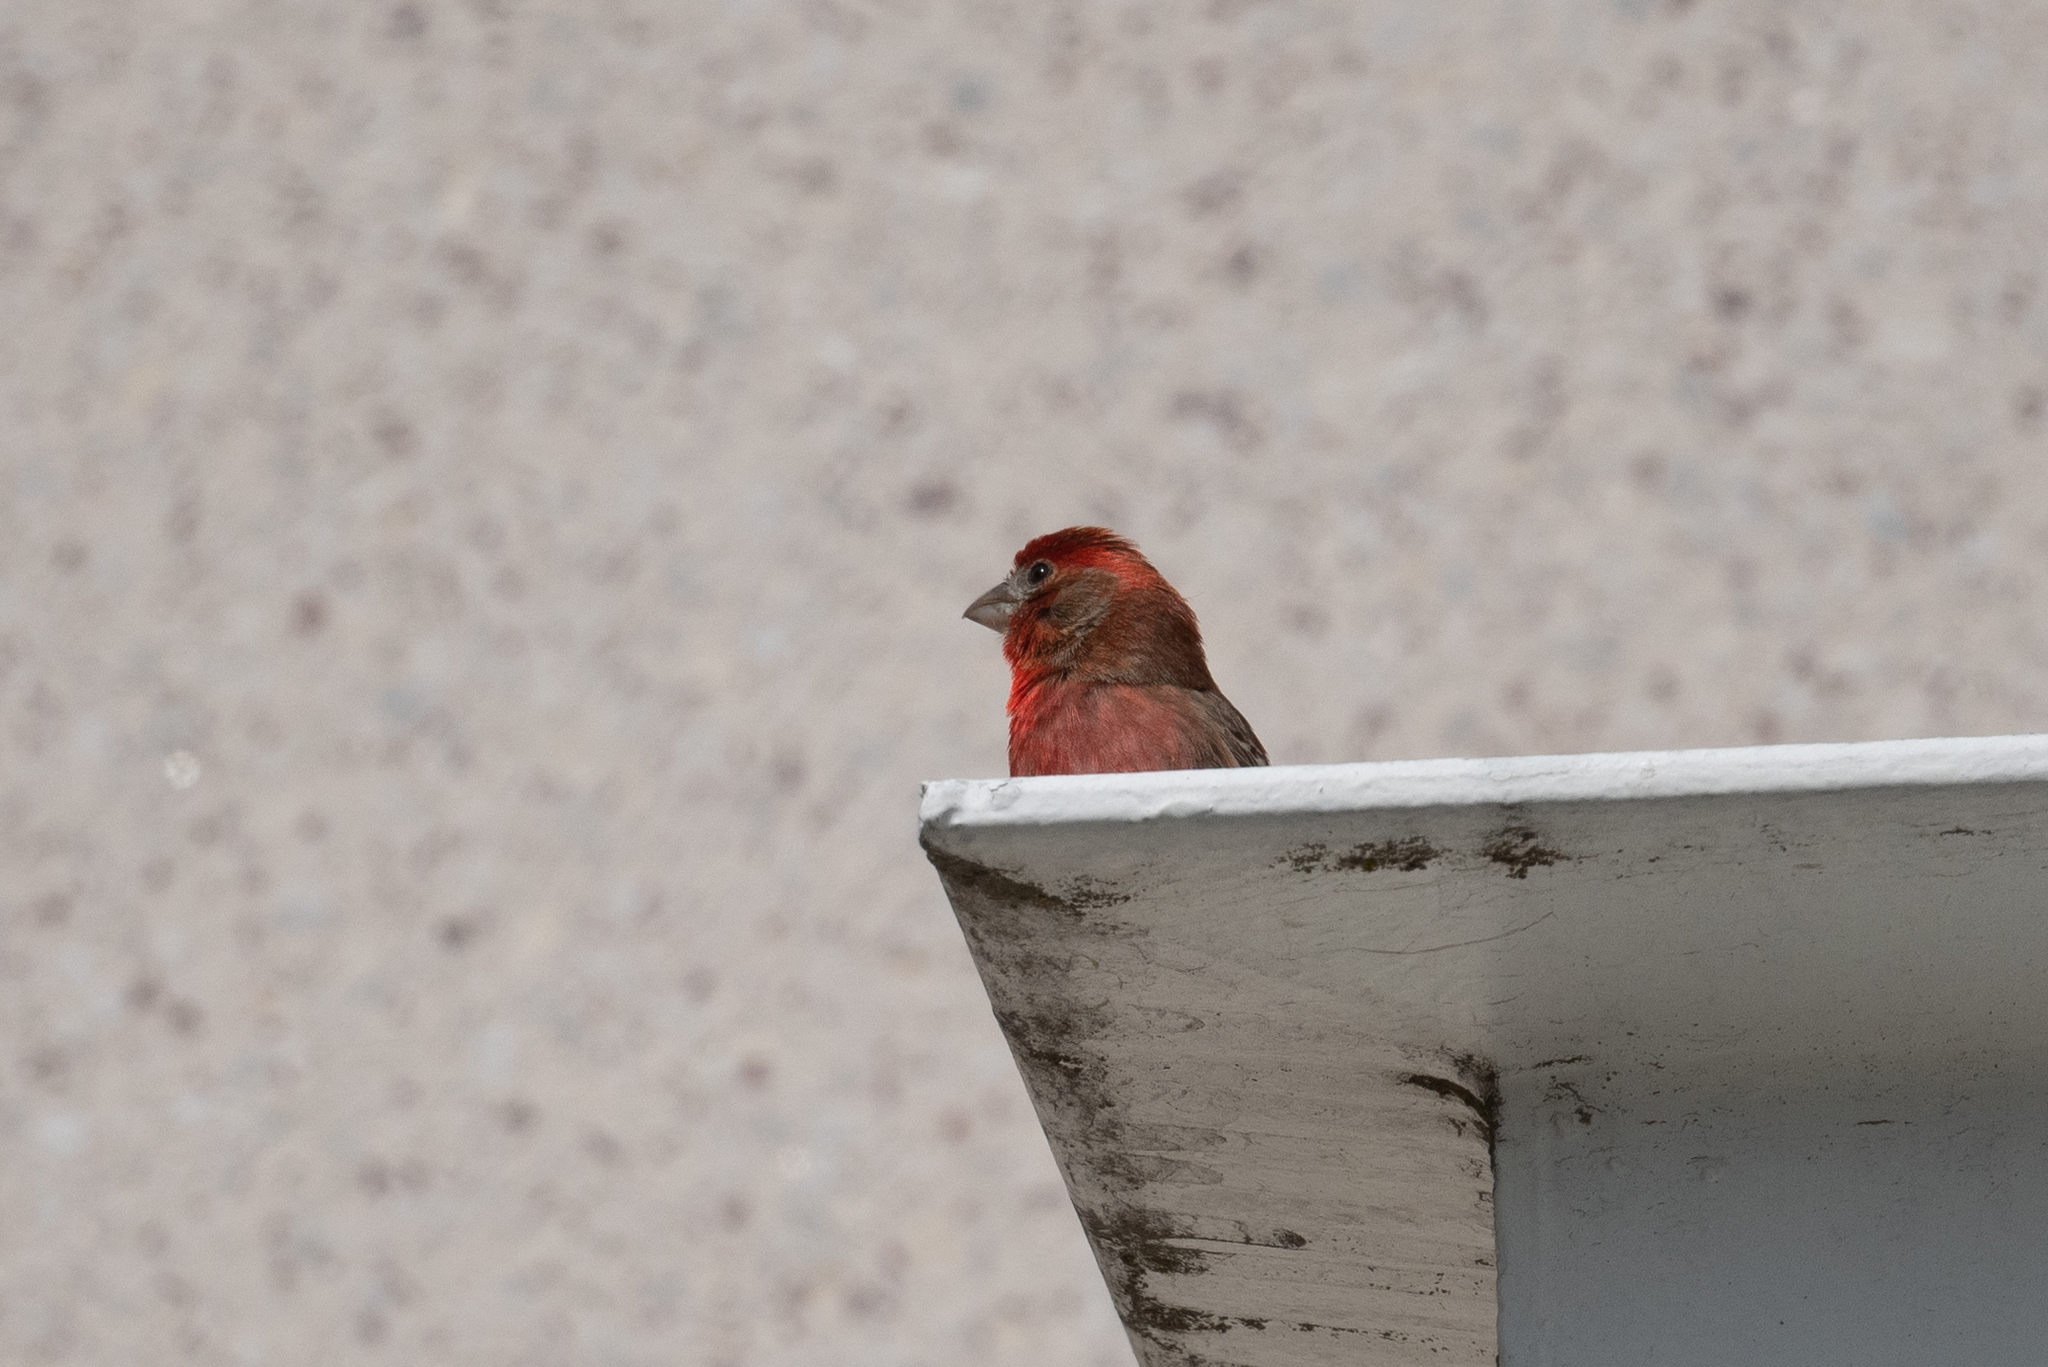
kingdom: Animalia
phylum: Chordata
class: Aves
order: Passeriformes
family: Fringillidae
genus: Haemorhous
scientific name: Haemorhous mexicanus
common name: House finch
